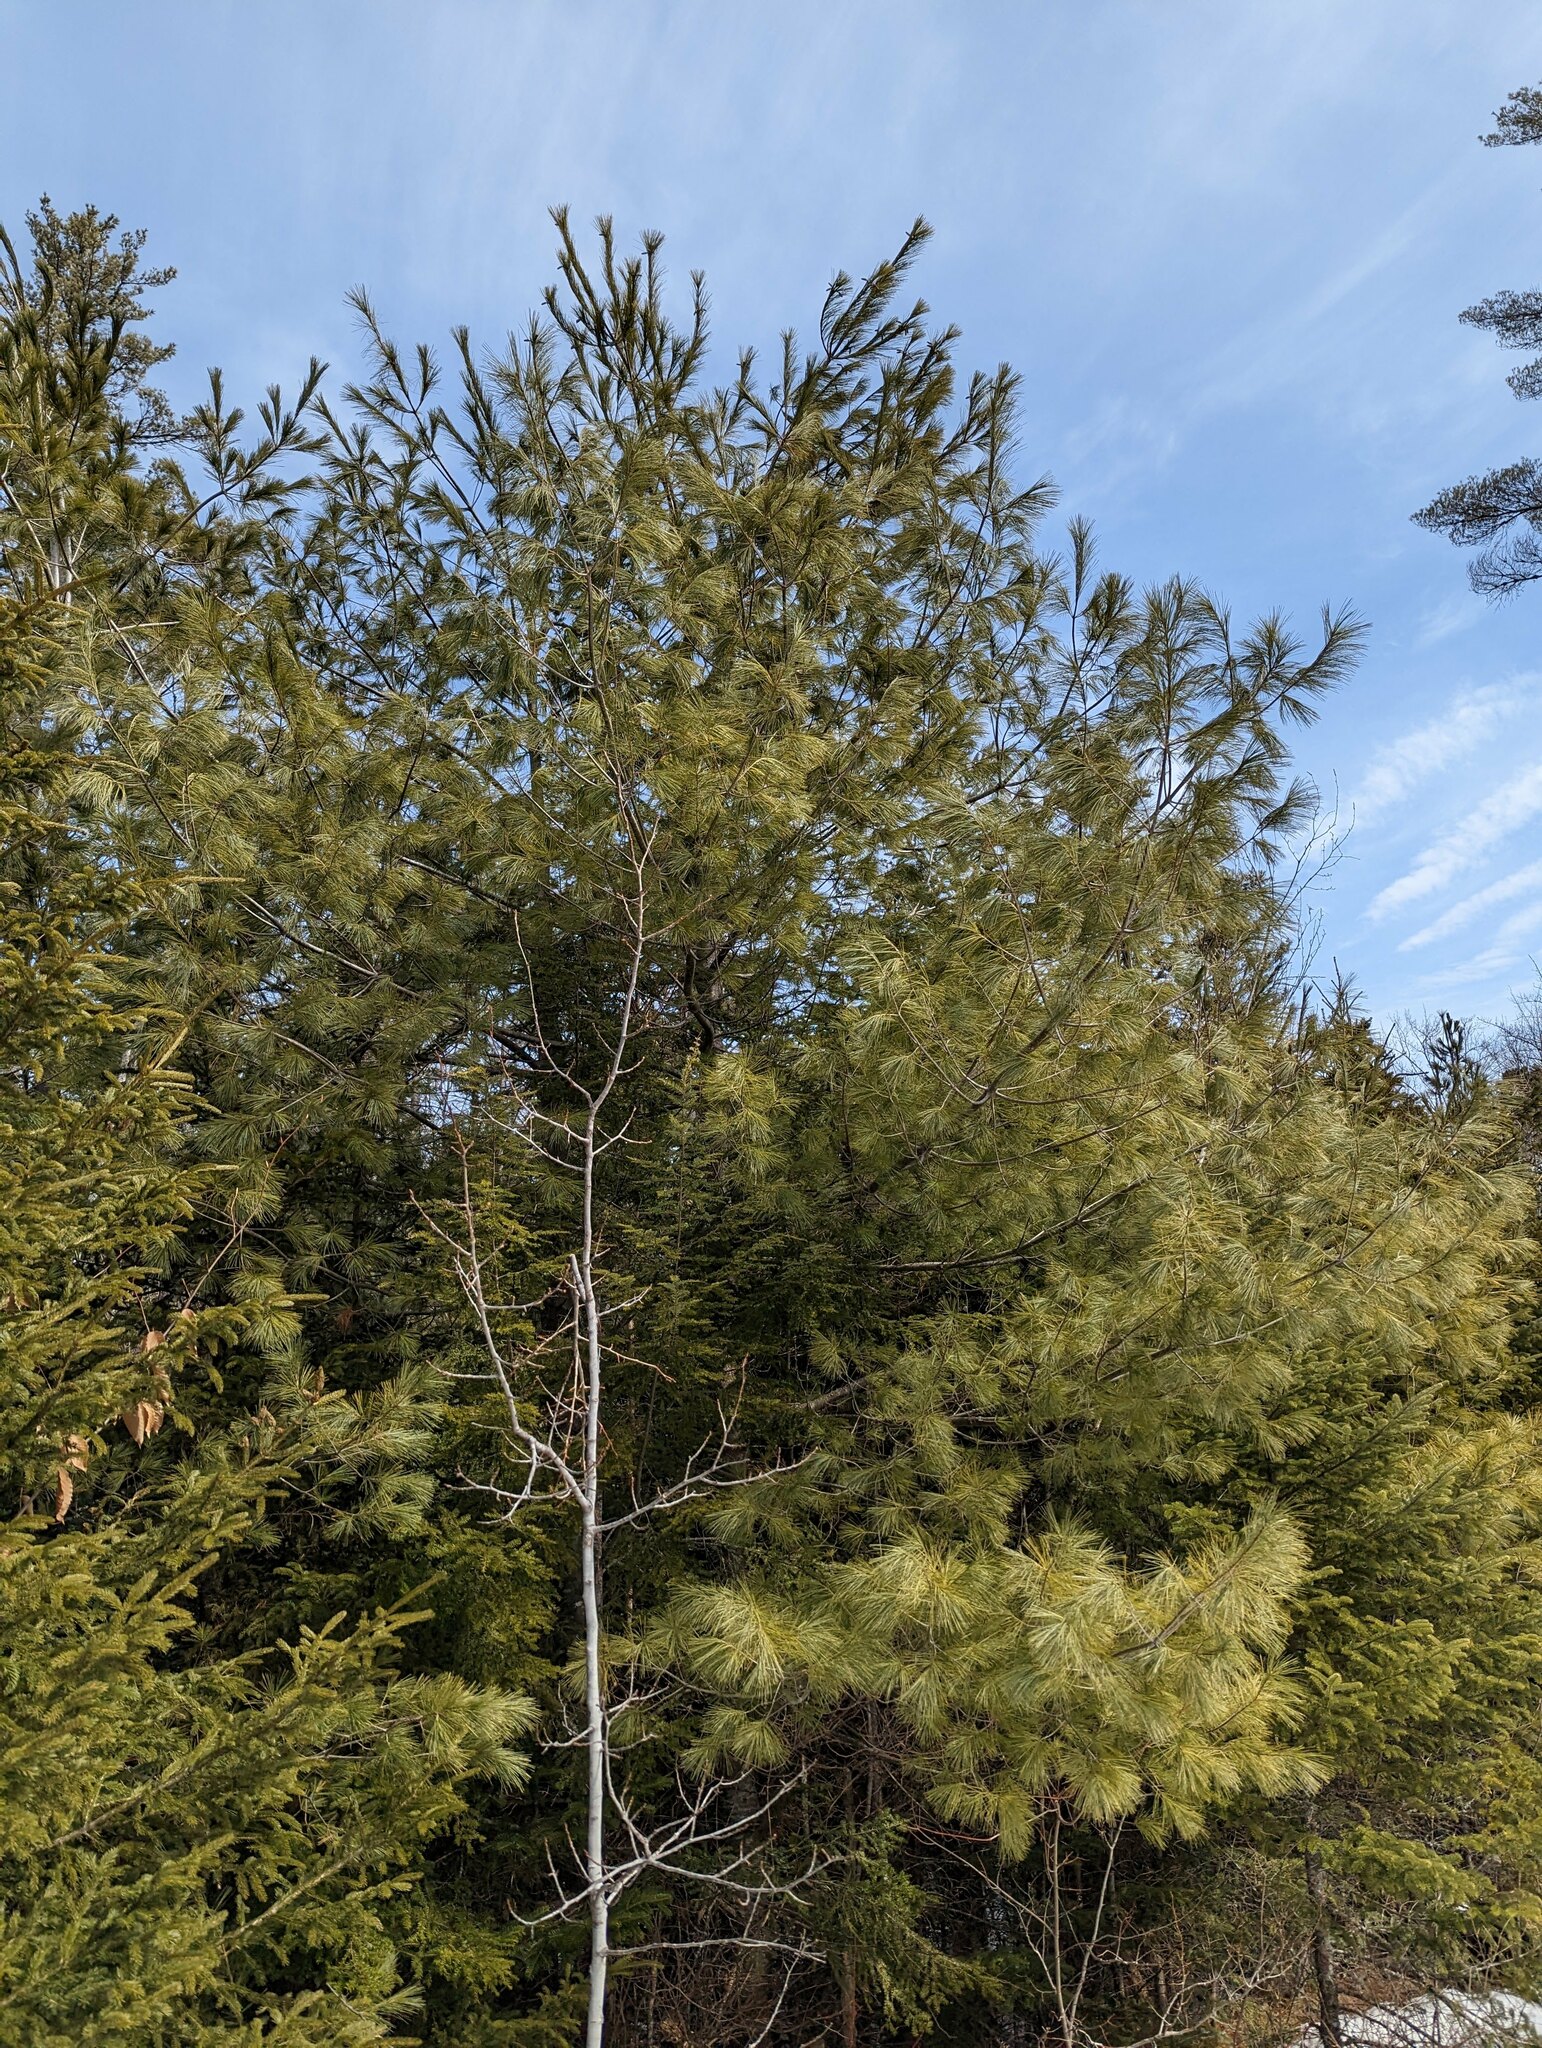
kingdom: Plantae
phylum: Tracheophyta
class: Pinopsida
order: Pinales
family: Pinaceae
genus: Pinus
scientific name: Pinus strobus
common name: Weymouth pine
